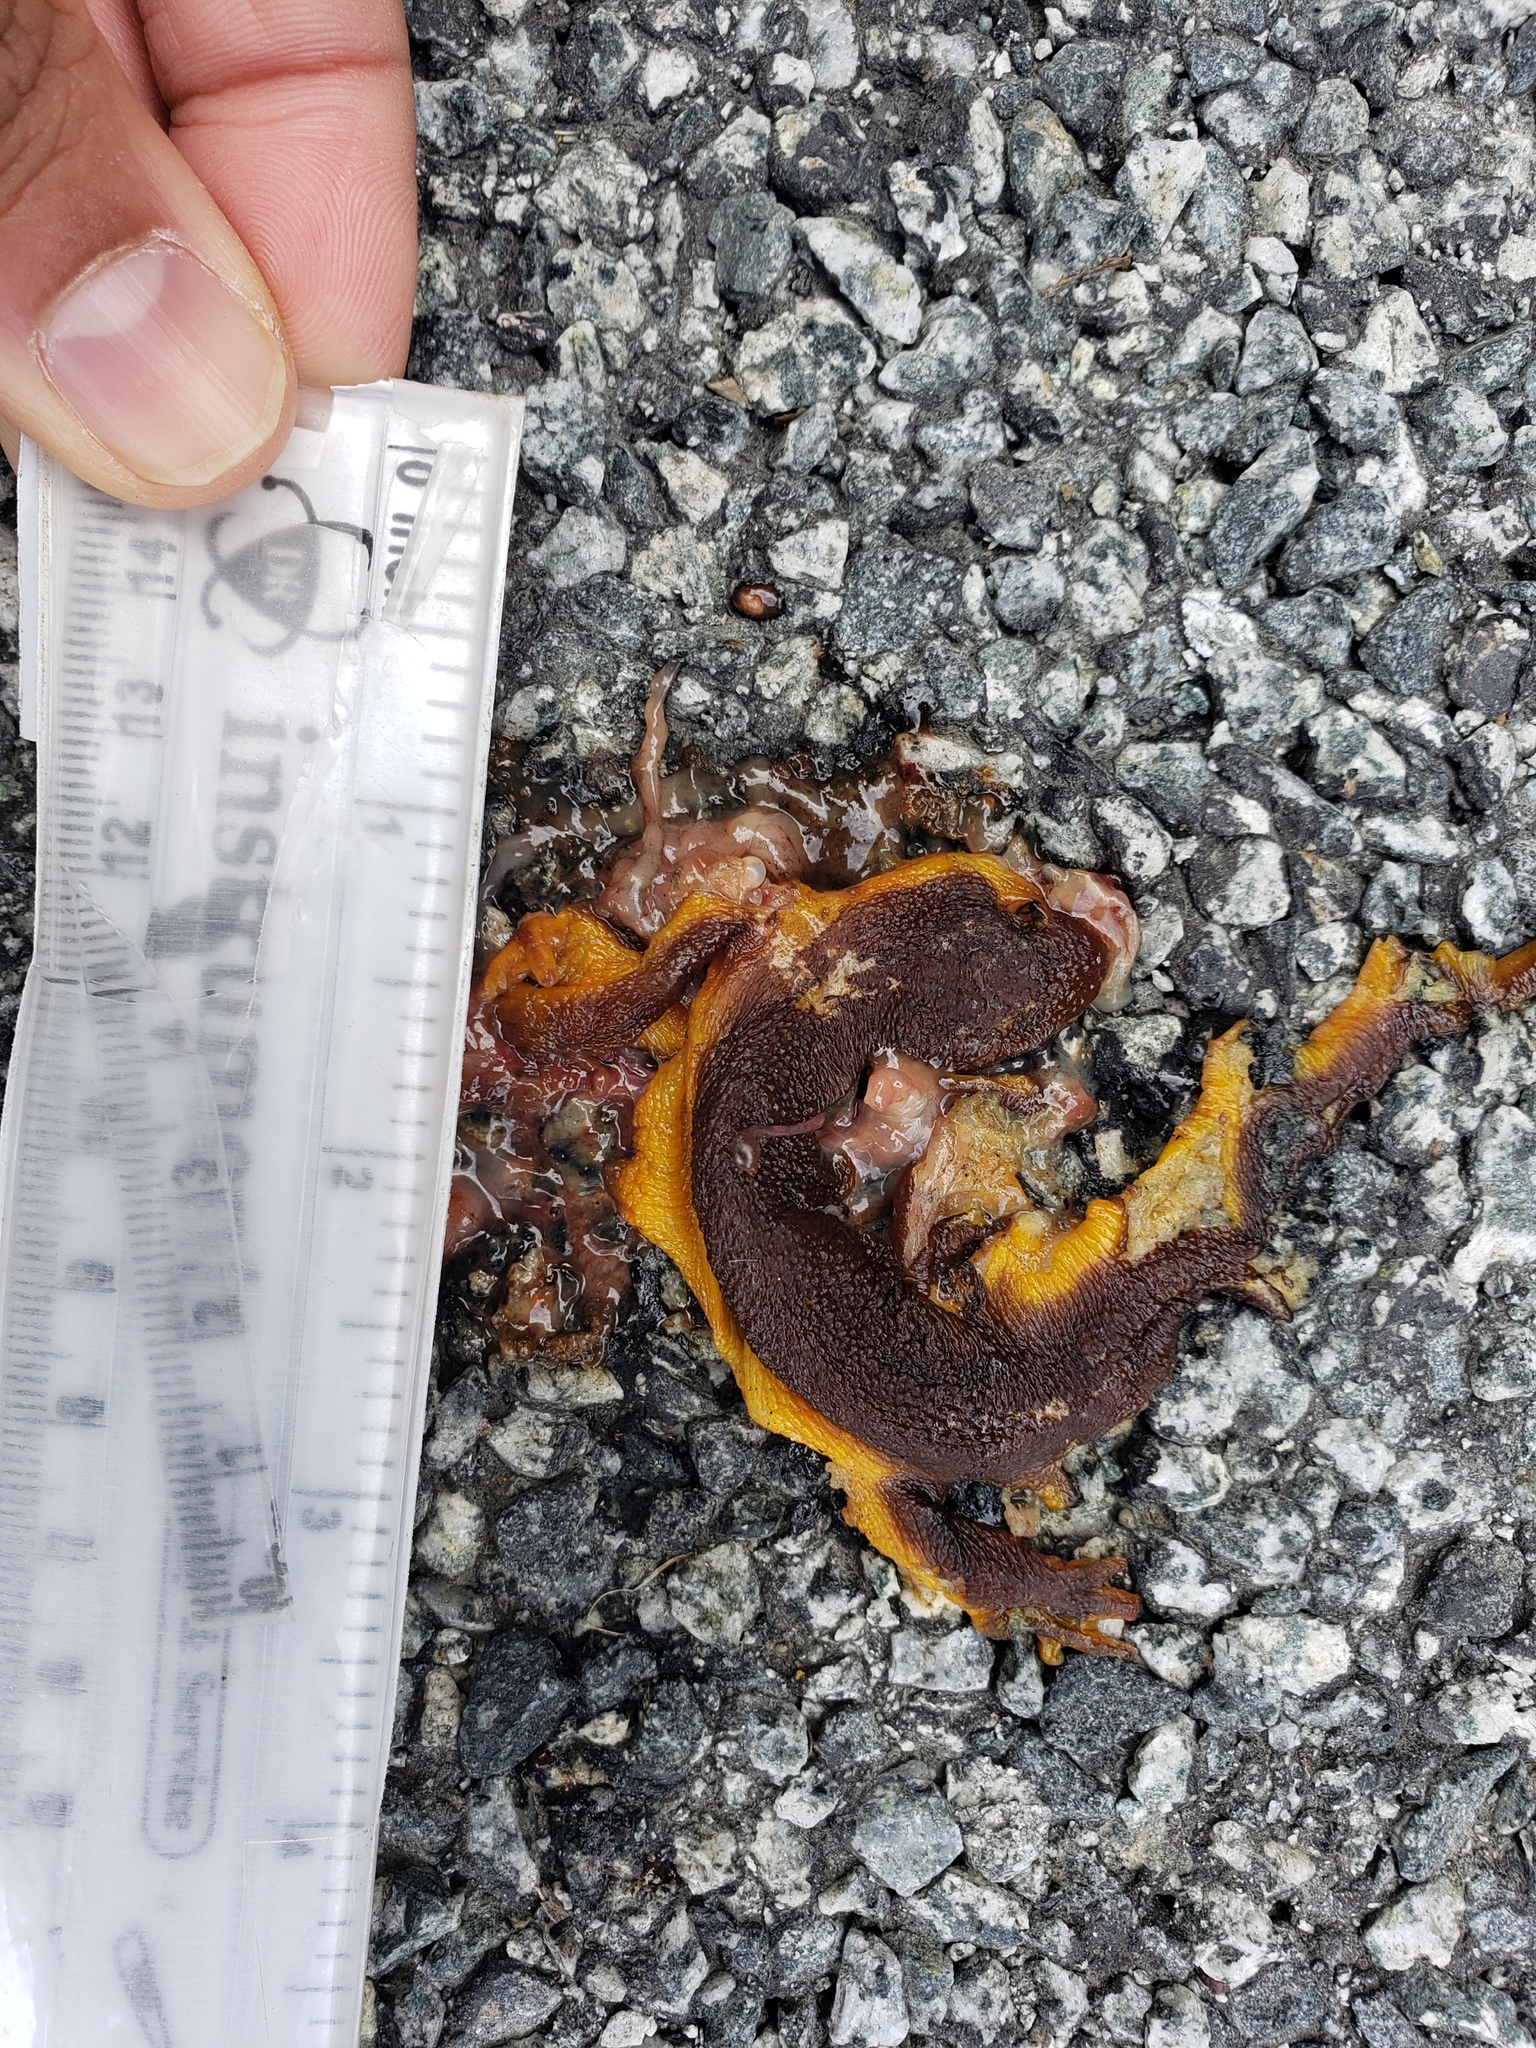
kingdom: Animalia
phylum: Chordata
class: Amphibia
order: Caudata
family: Salamandridae
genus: Taricha
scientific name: Taricha
